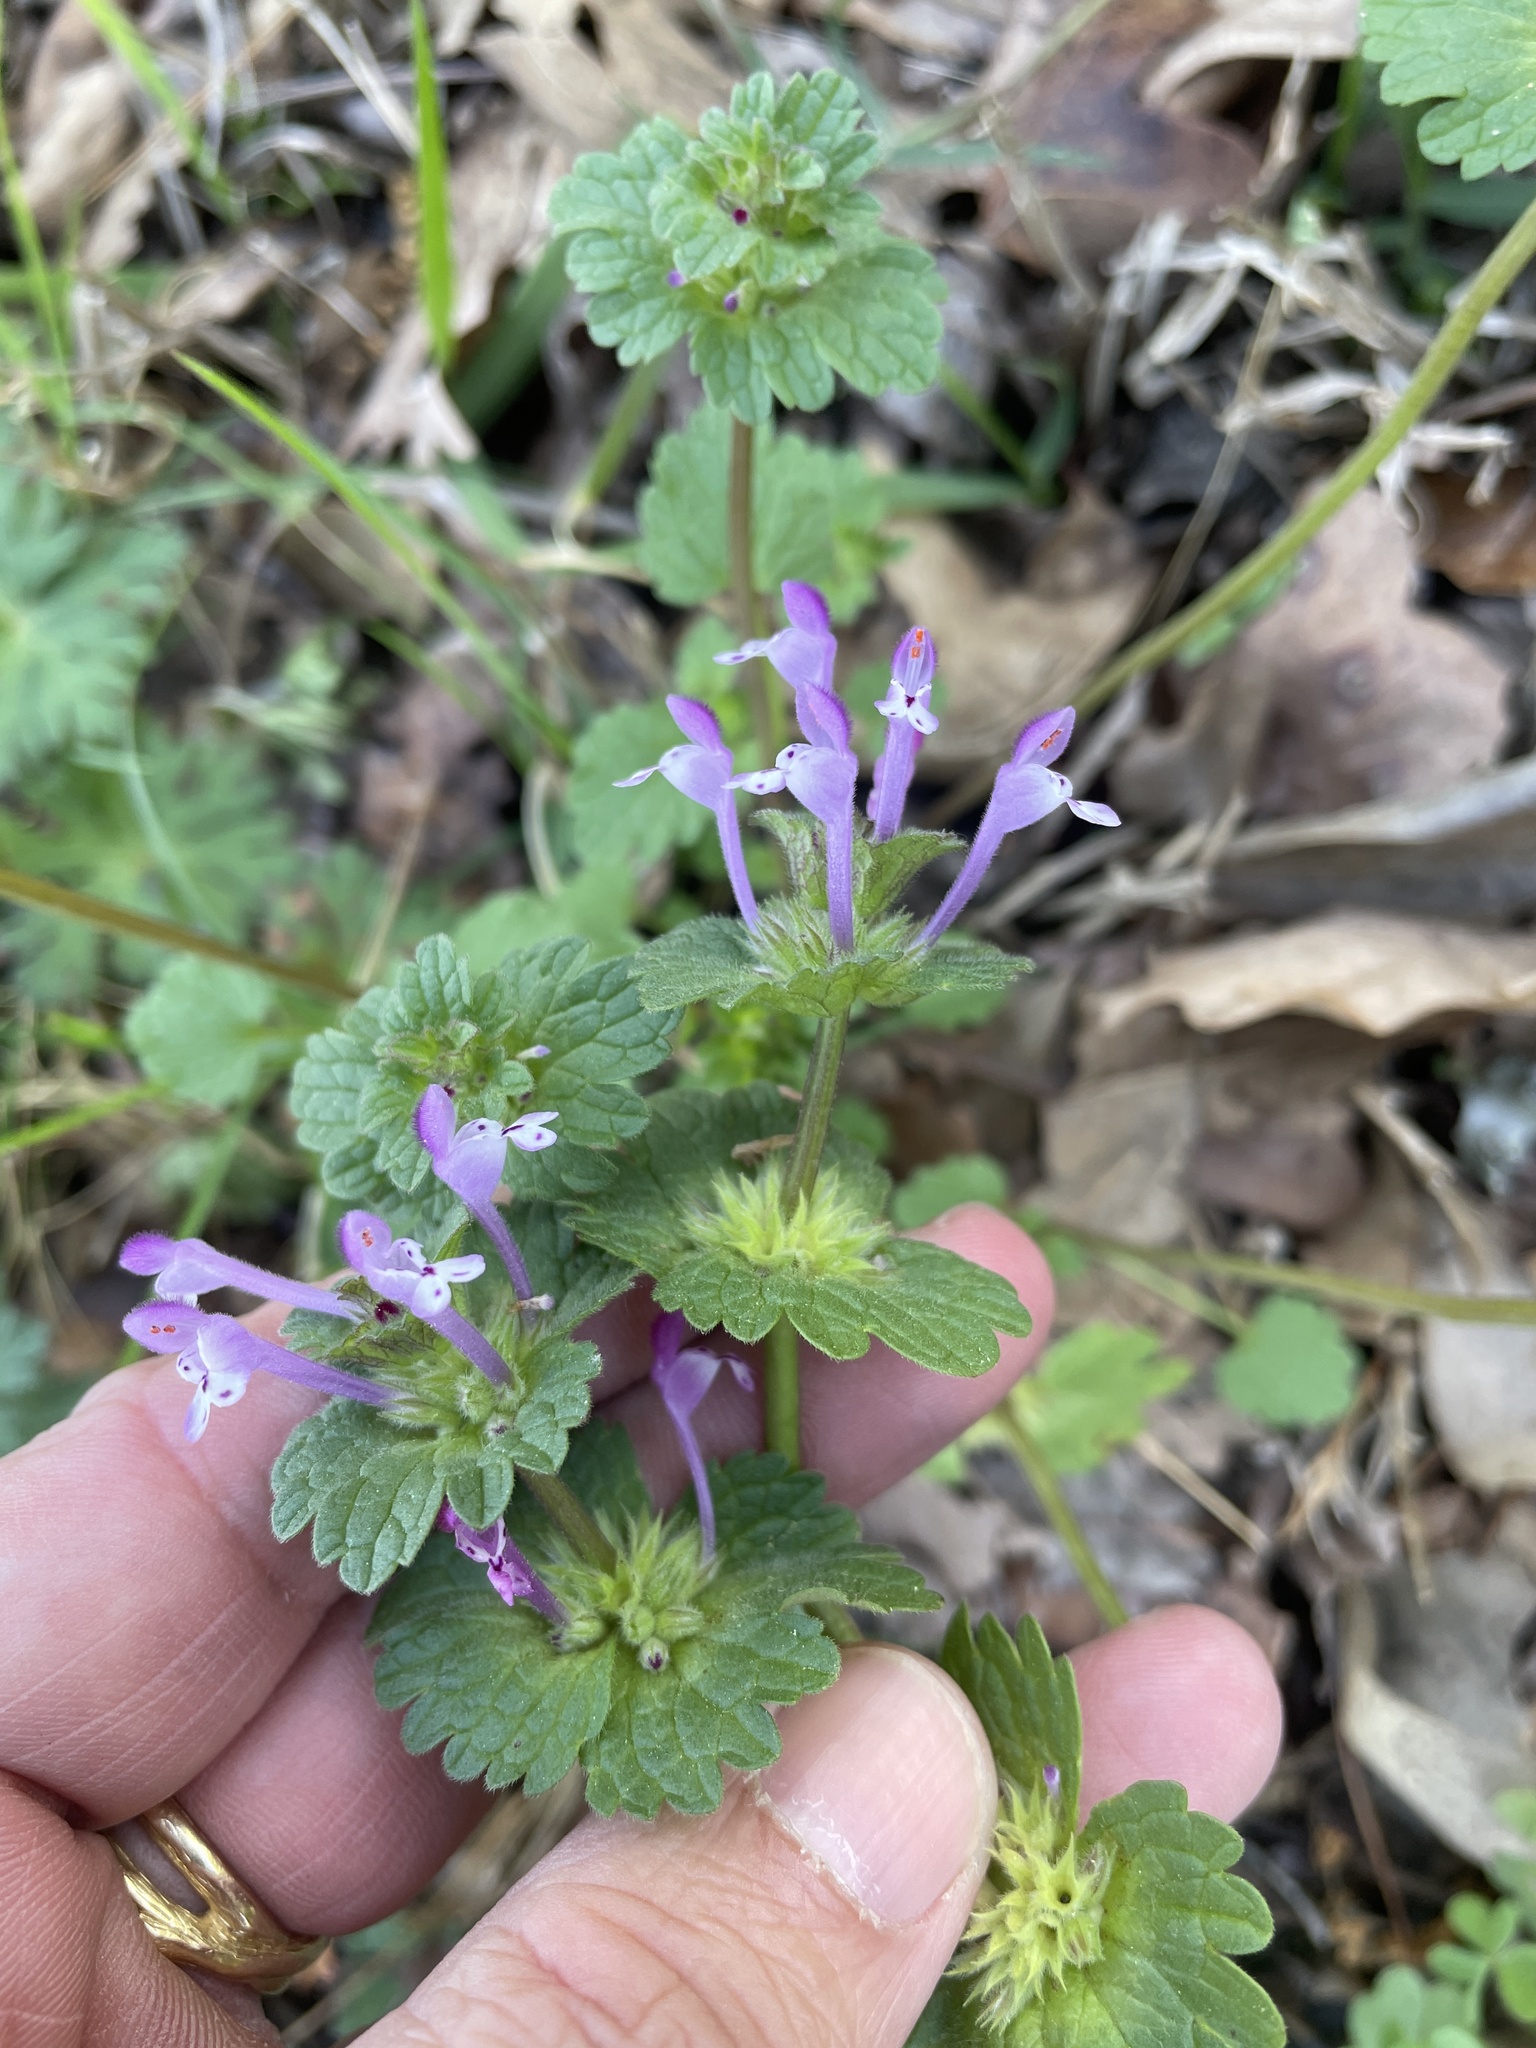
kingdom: Plantae
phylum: Tracheophyta
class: Magnoliopsida
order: Lamiales
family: Lamiaceae
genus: Lamium
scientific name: Lamium amplexicaule
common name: Henbit dead-nettle
